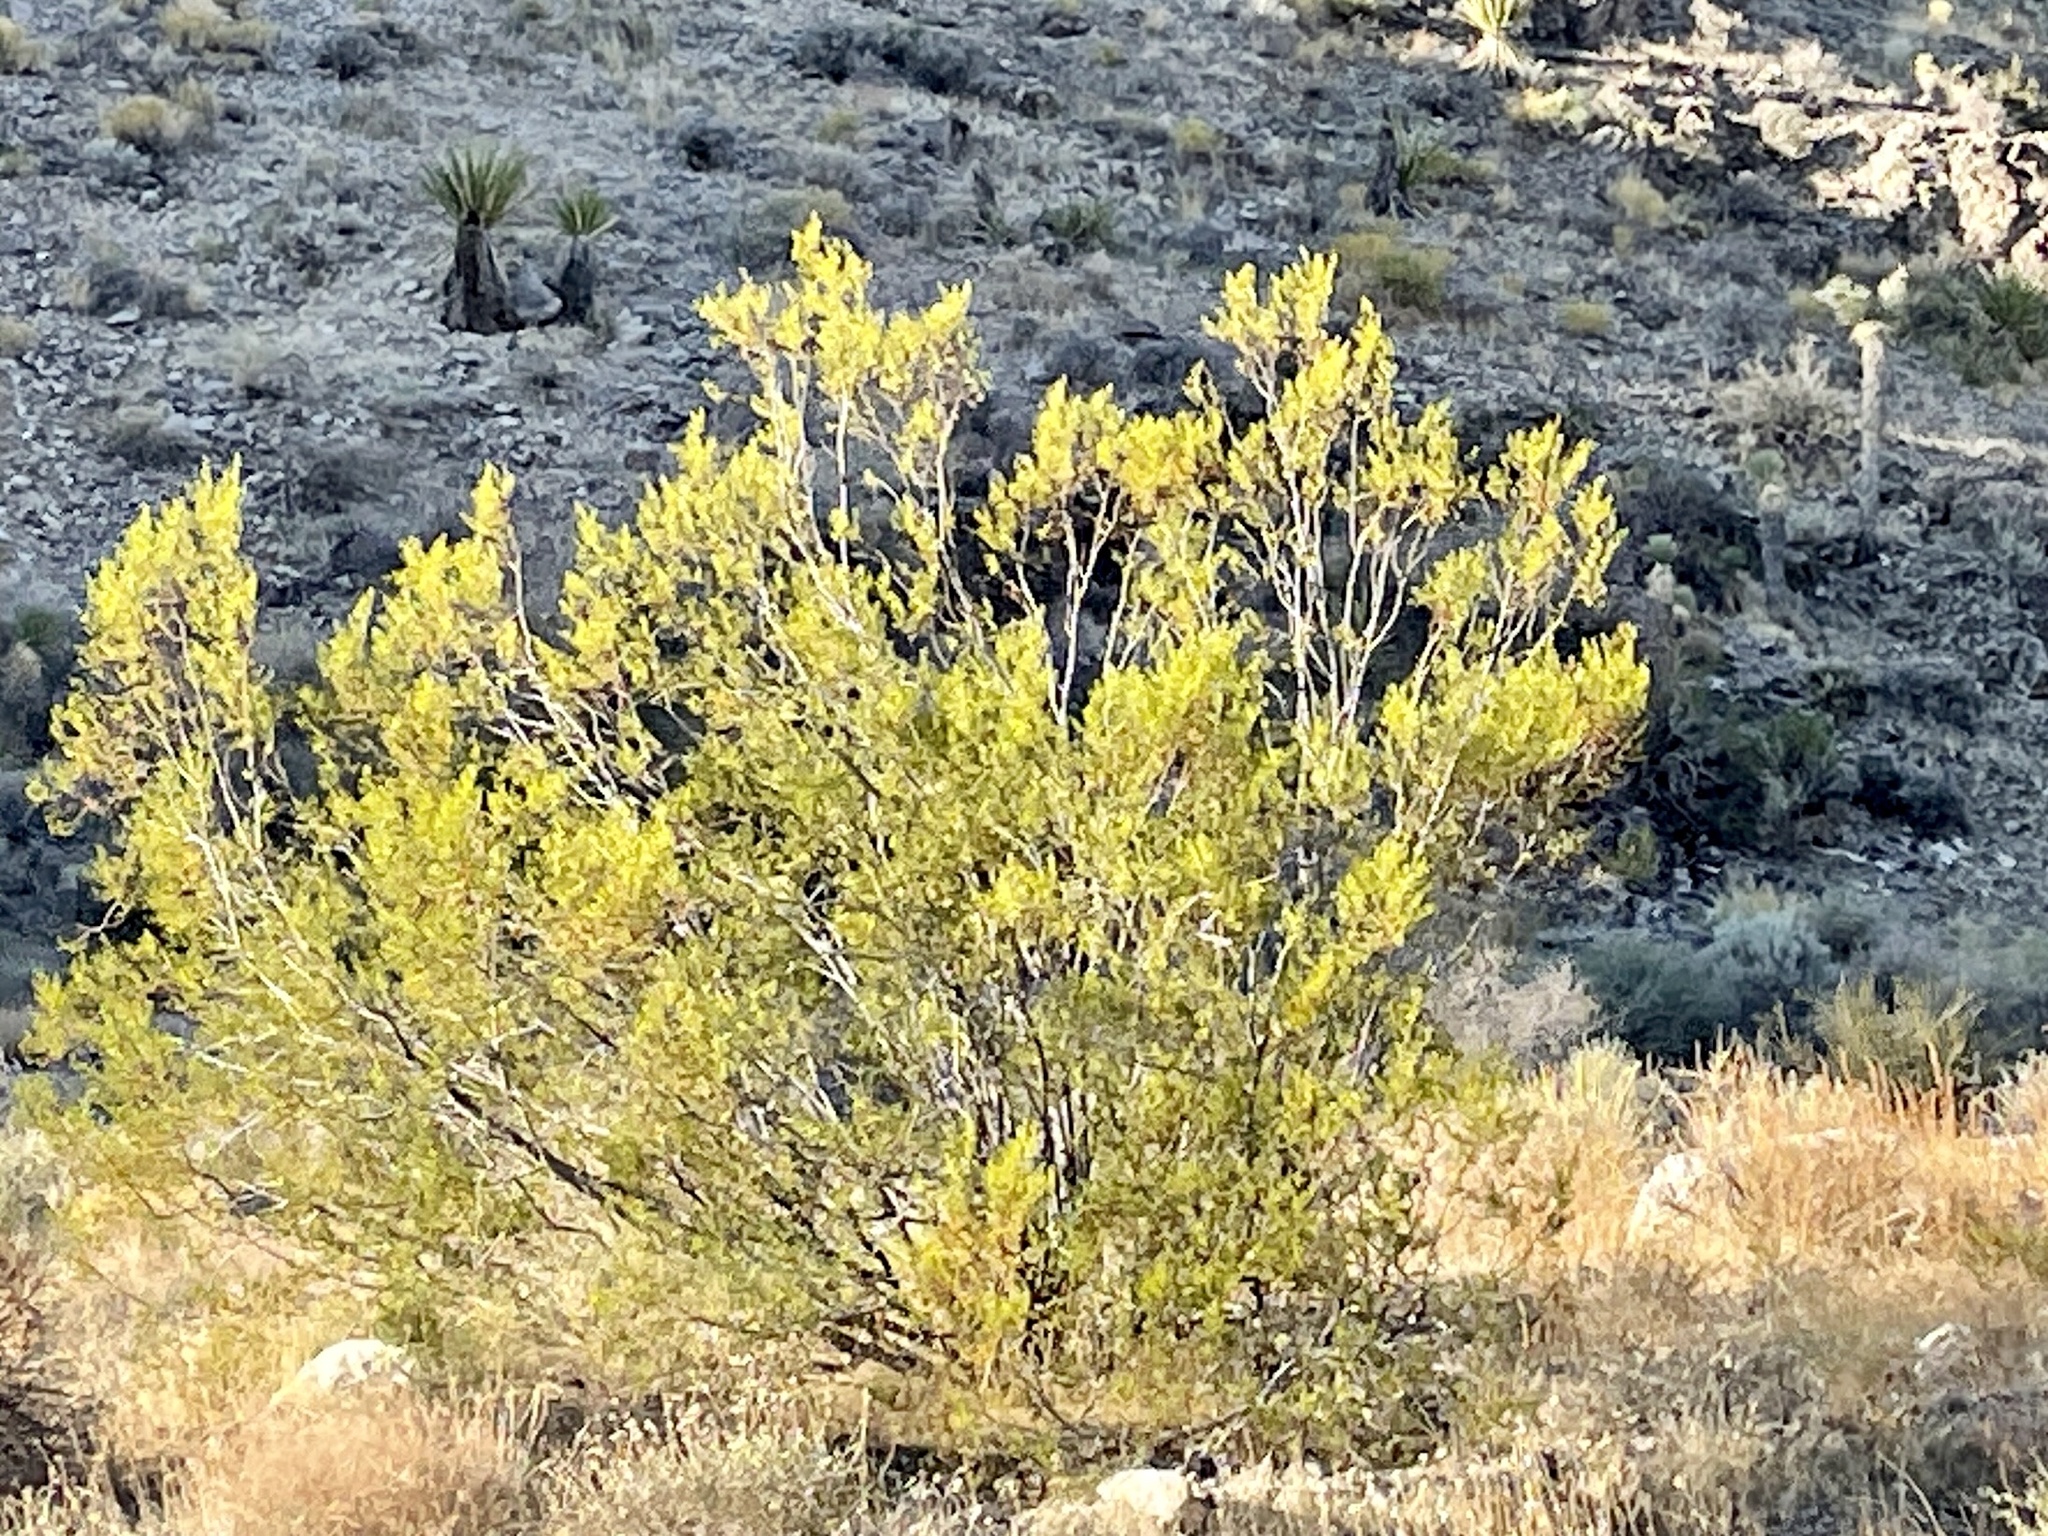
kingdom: Plantae
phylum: Tracheophyta
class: Magnoliopsida
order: Zygophyllales
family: Zygophyllaceae
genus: Larrea
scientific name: Larrea tridentata
